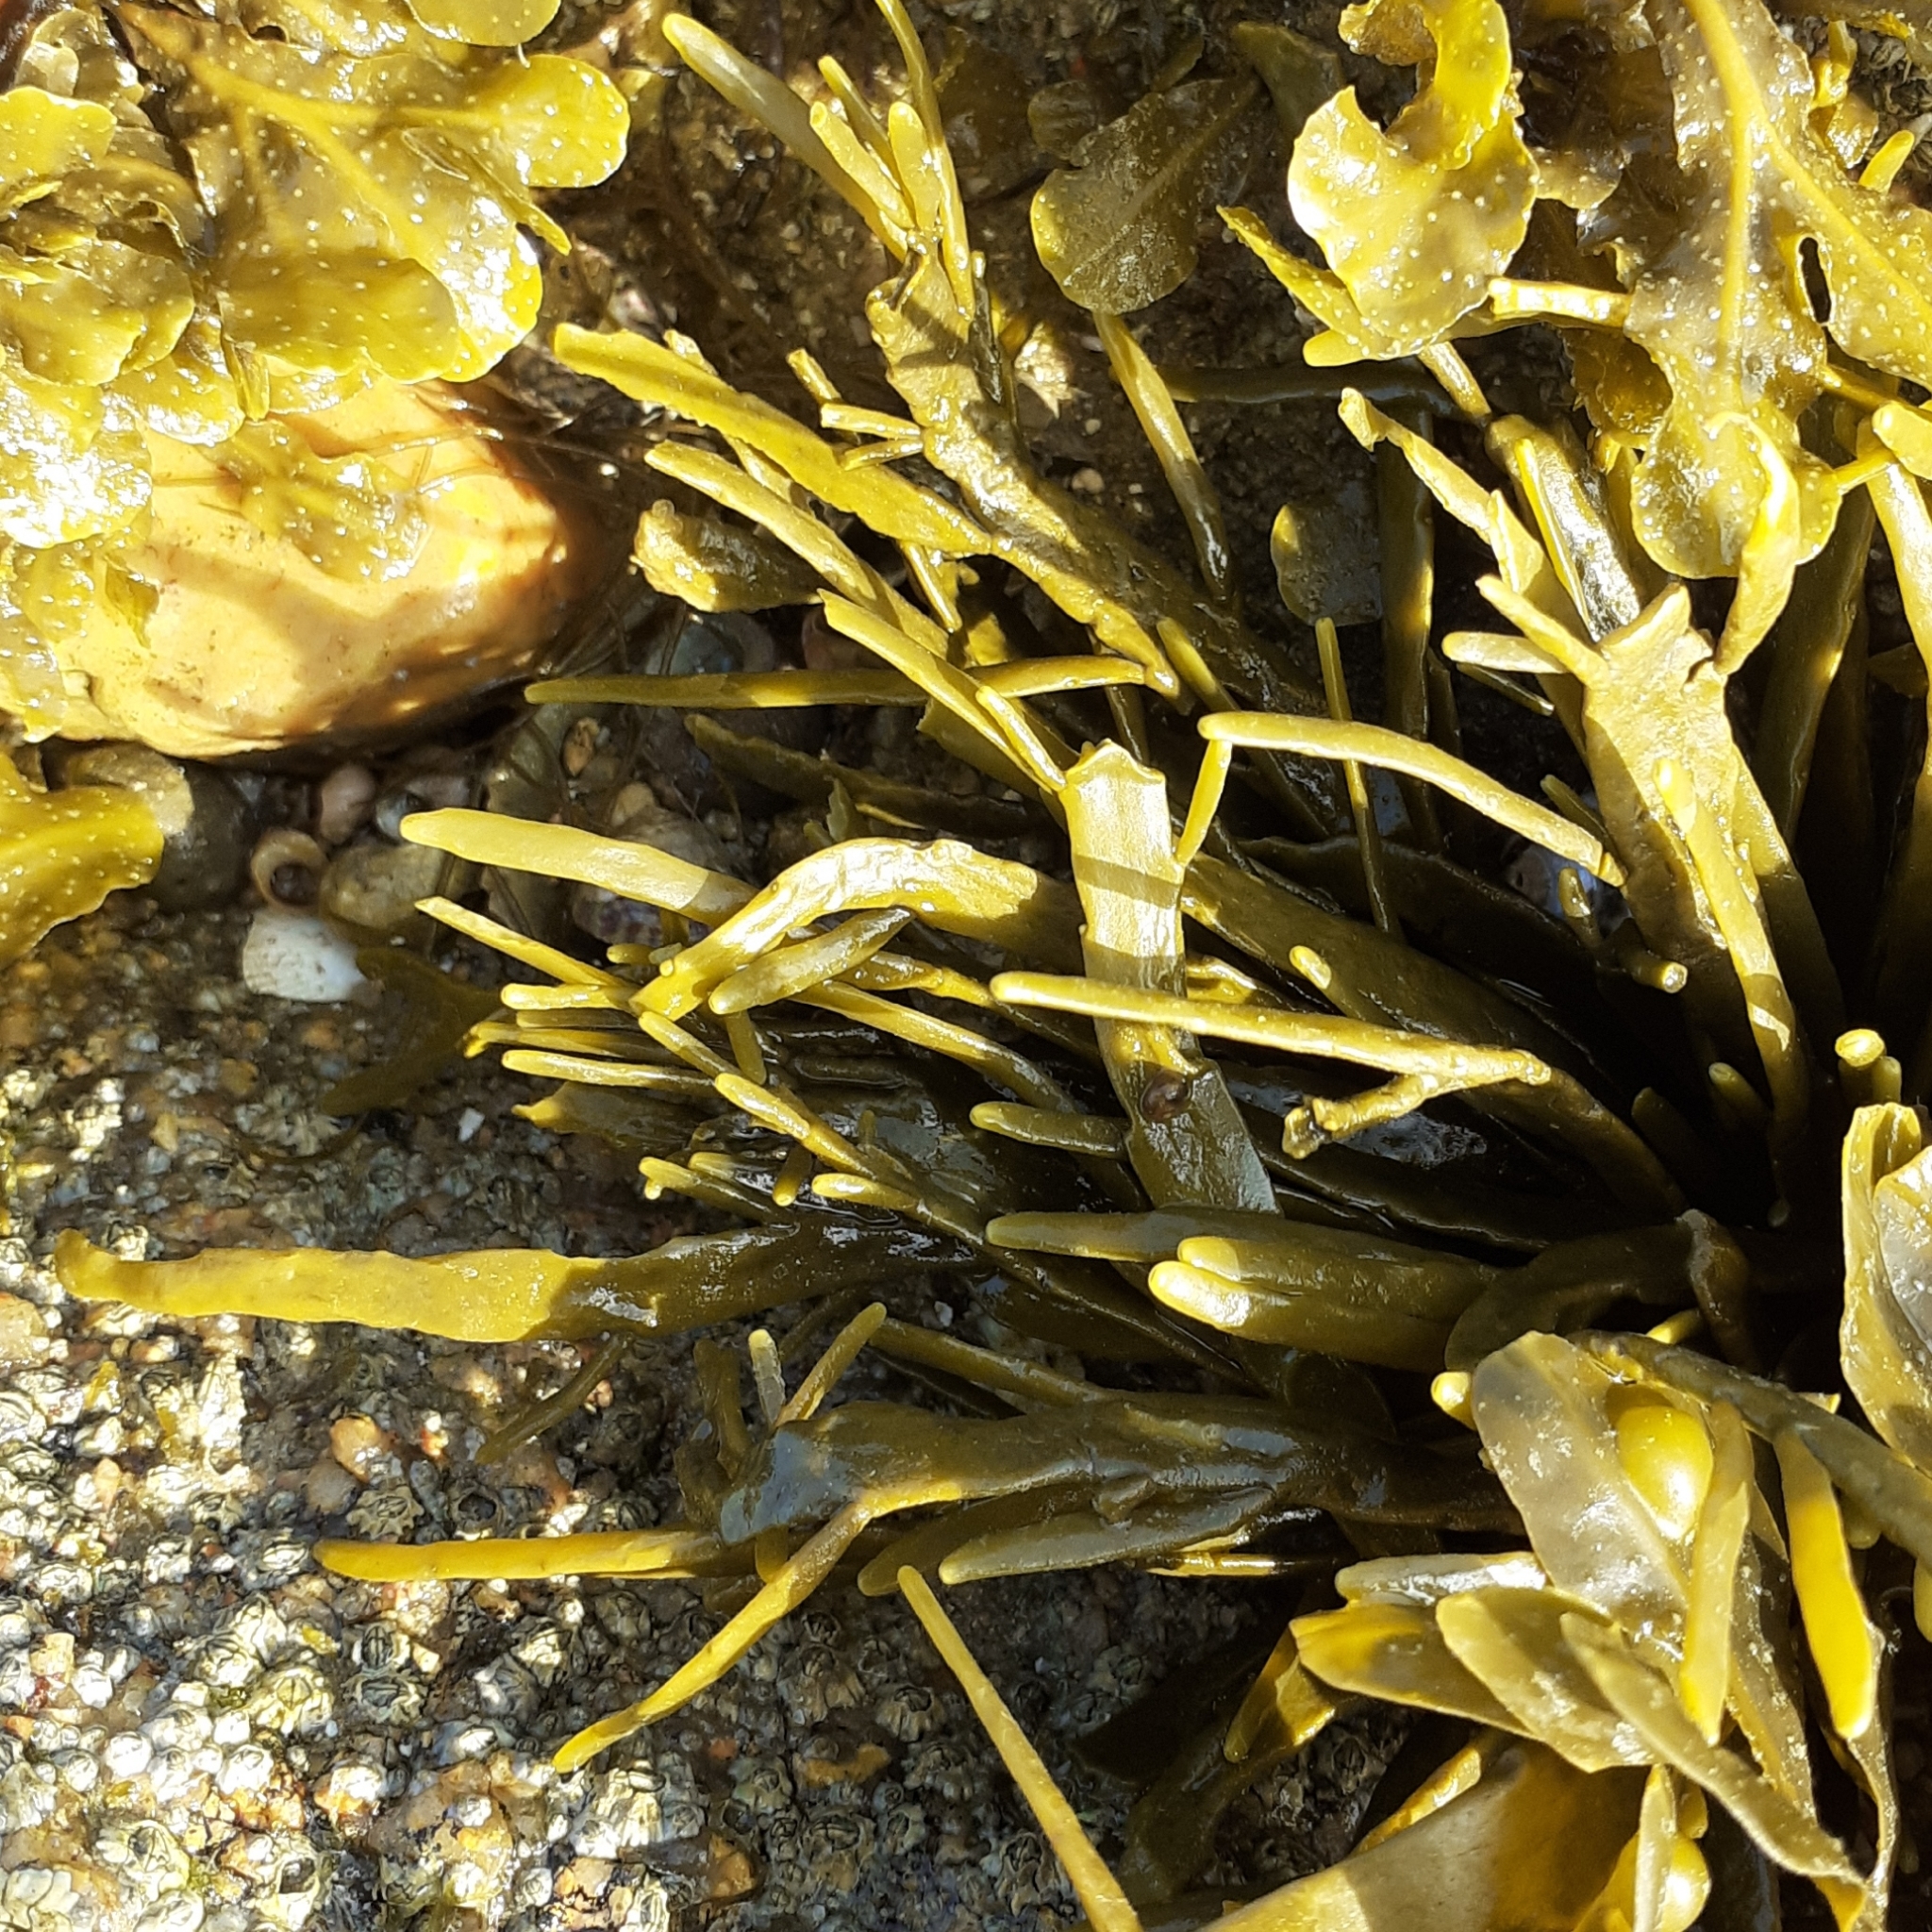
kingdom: Chromista
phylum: Ochrophyta
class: Phaeophyceae
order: Fucales
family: Fucaceae
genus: Ascophyllum
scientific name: Ascophyllum nodosum
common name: Knotted wrack
